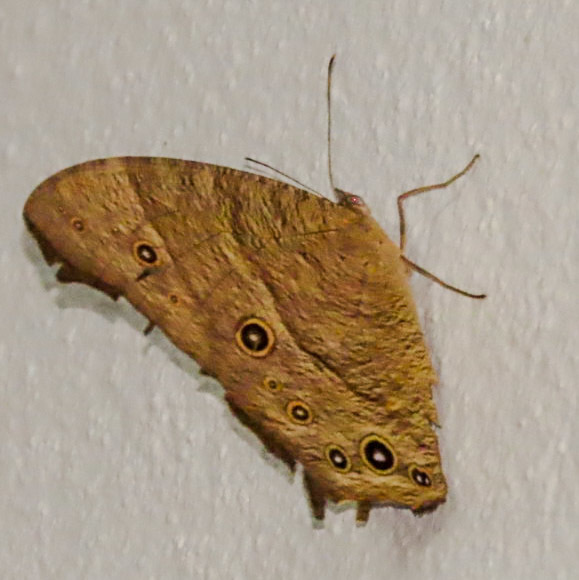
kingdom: Animalia
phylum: Arthropoda
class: Insecta
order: Lepidoptera
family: Nymphalidae
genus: Melanitis
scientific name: Melanitis leda
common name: Twilight brown
